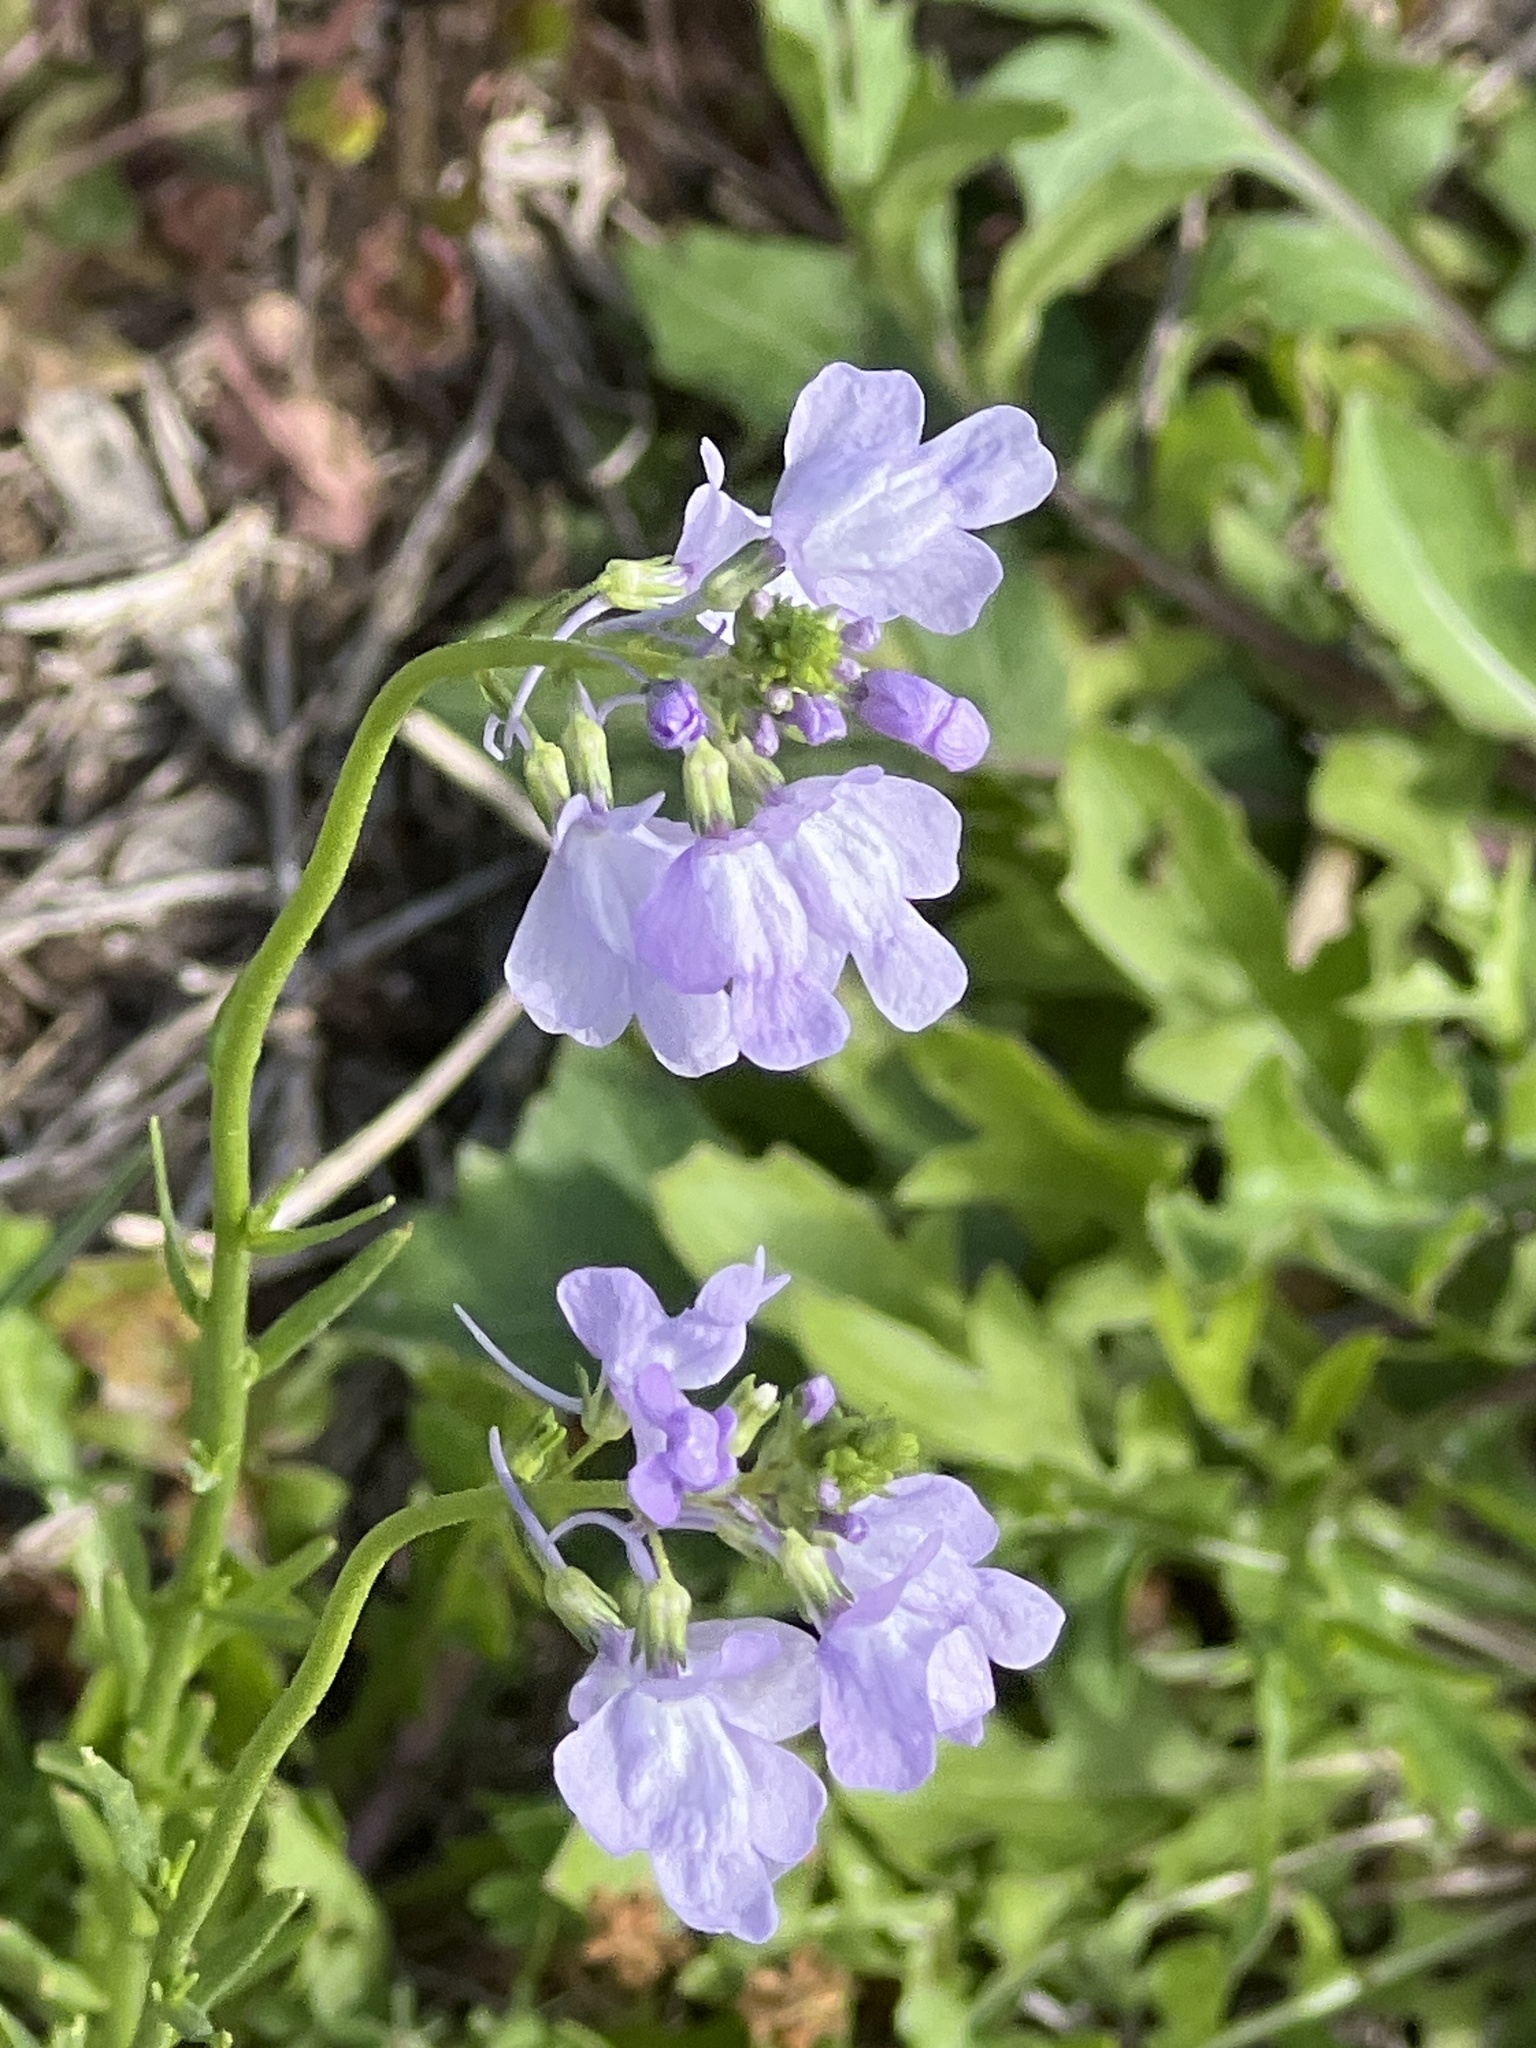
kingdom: Plantae
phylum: Tracheophyta
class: Magnoliopsida
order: Lamiales
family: Plantaginaceae
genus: Nuttallanthus
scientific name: Nuttallanthus texanus
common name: Texas toadflax
